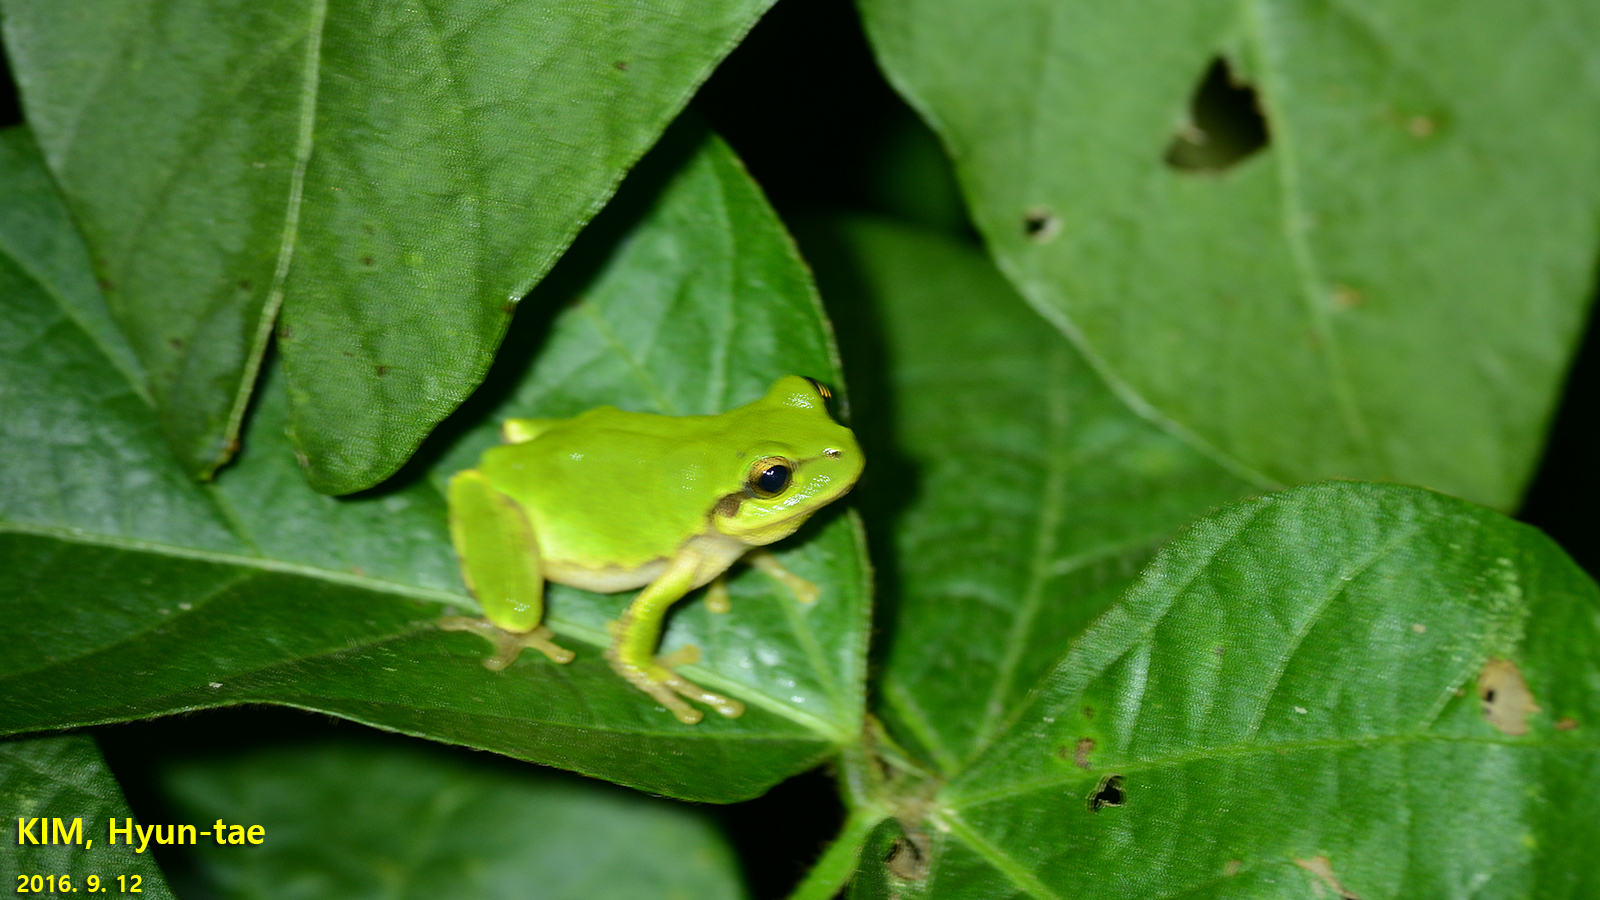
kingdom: Animalia
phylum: Chordata
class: Amphibia
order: Anura
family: Hylidae
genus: Dryophytes
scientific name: Dryophytes japonicus
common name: Japanese treefrog
